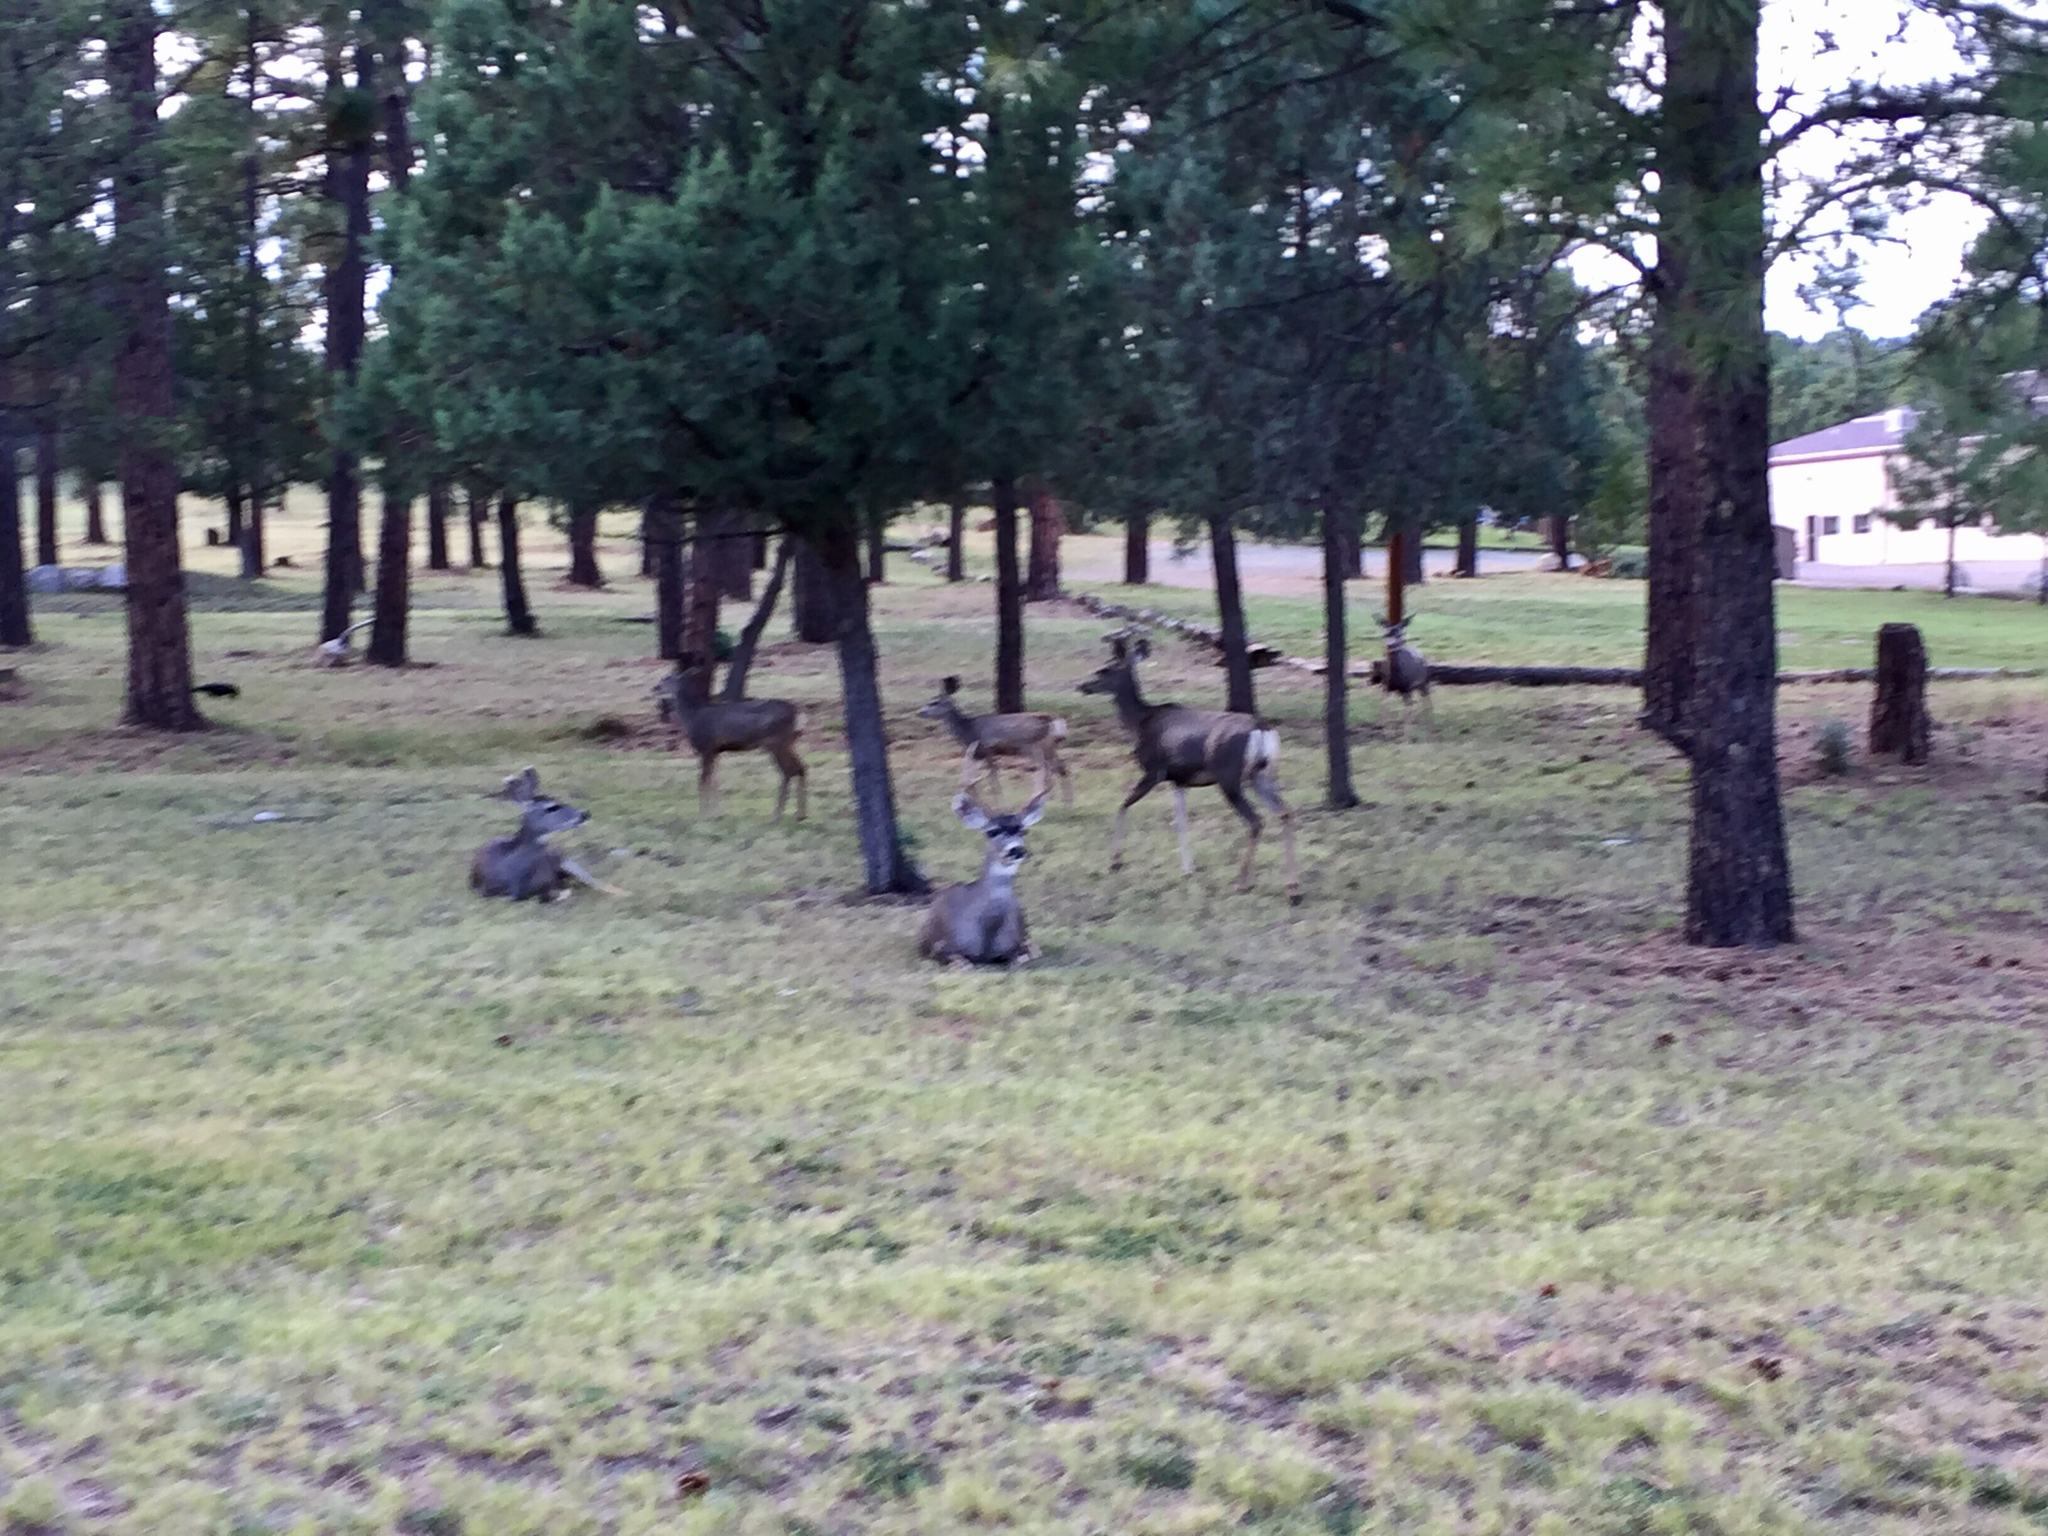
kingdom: Animalia
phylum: Chordata
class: Mammalia
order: Artiodactyla
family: Cervidae
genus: Odocoileus
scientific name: Odocoileus hemionus
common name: Mule deer
